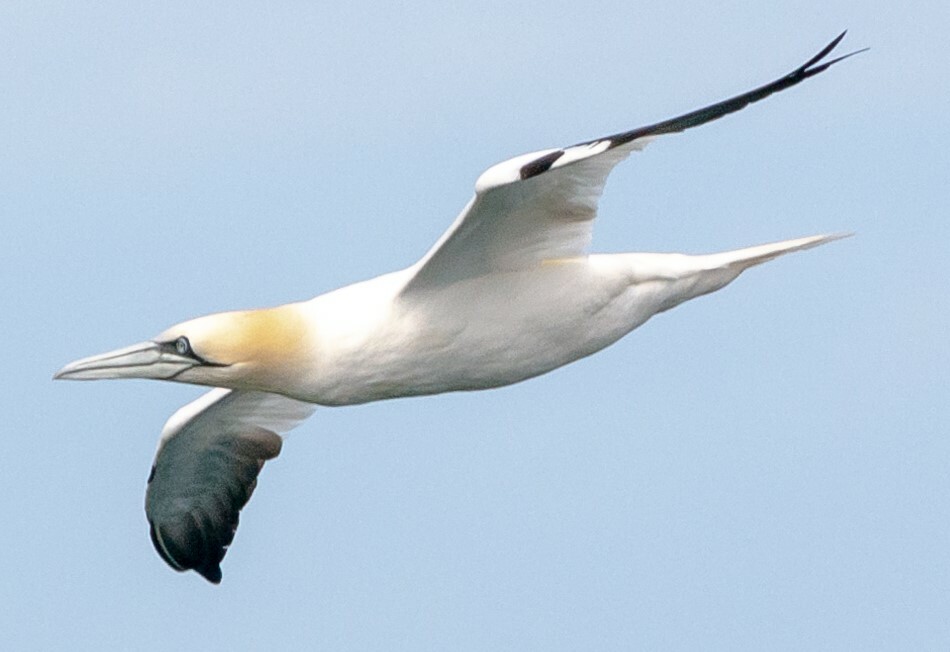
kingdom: Animalia
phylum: Chordata
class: Aves
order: Suliformes
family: Sulidae
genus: Morus
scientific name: Morus bassanus
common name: Northern gannet
